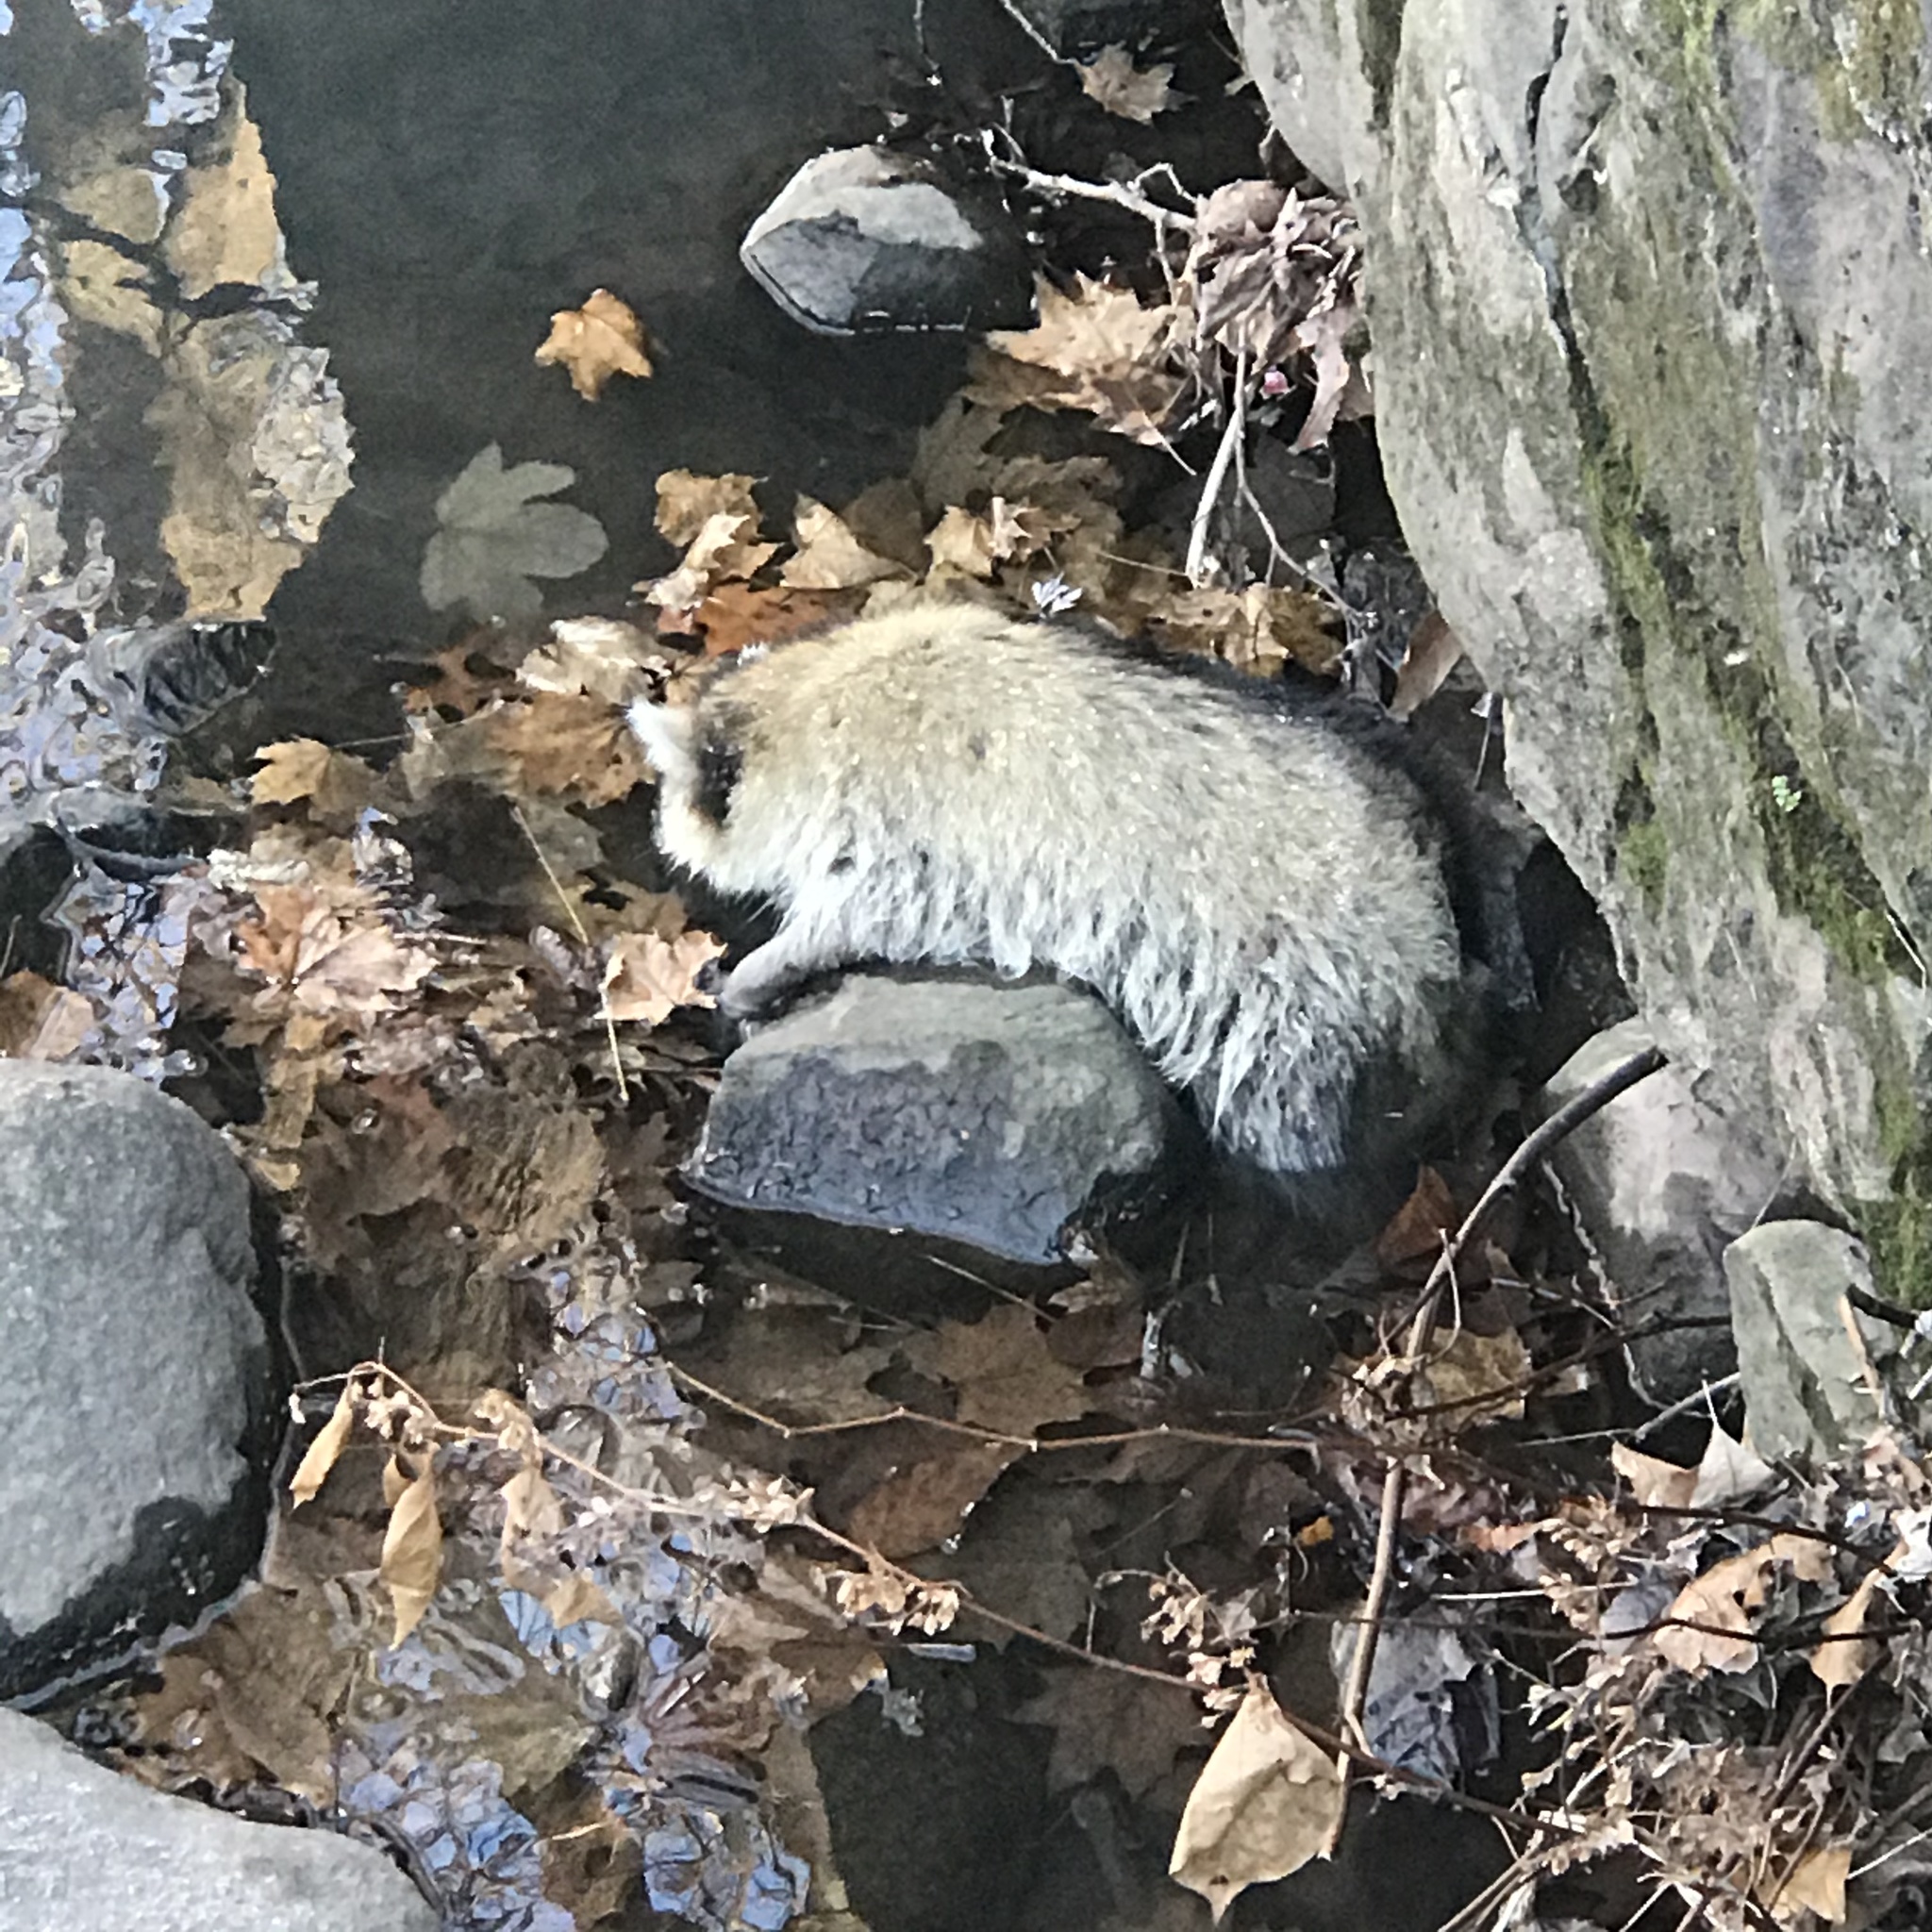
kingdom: Animalia
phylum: Chordata
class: Mammalia
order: Carnivora
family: Procyonidae
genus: Procyon
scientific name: Procyon lotor
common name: Raccoon
